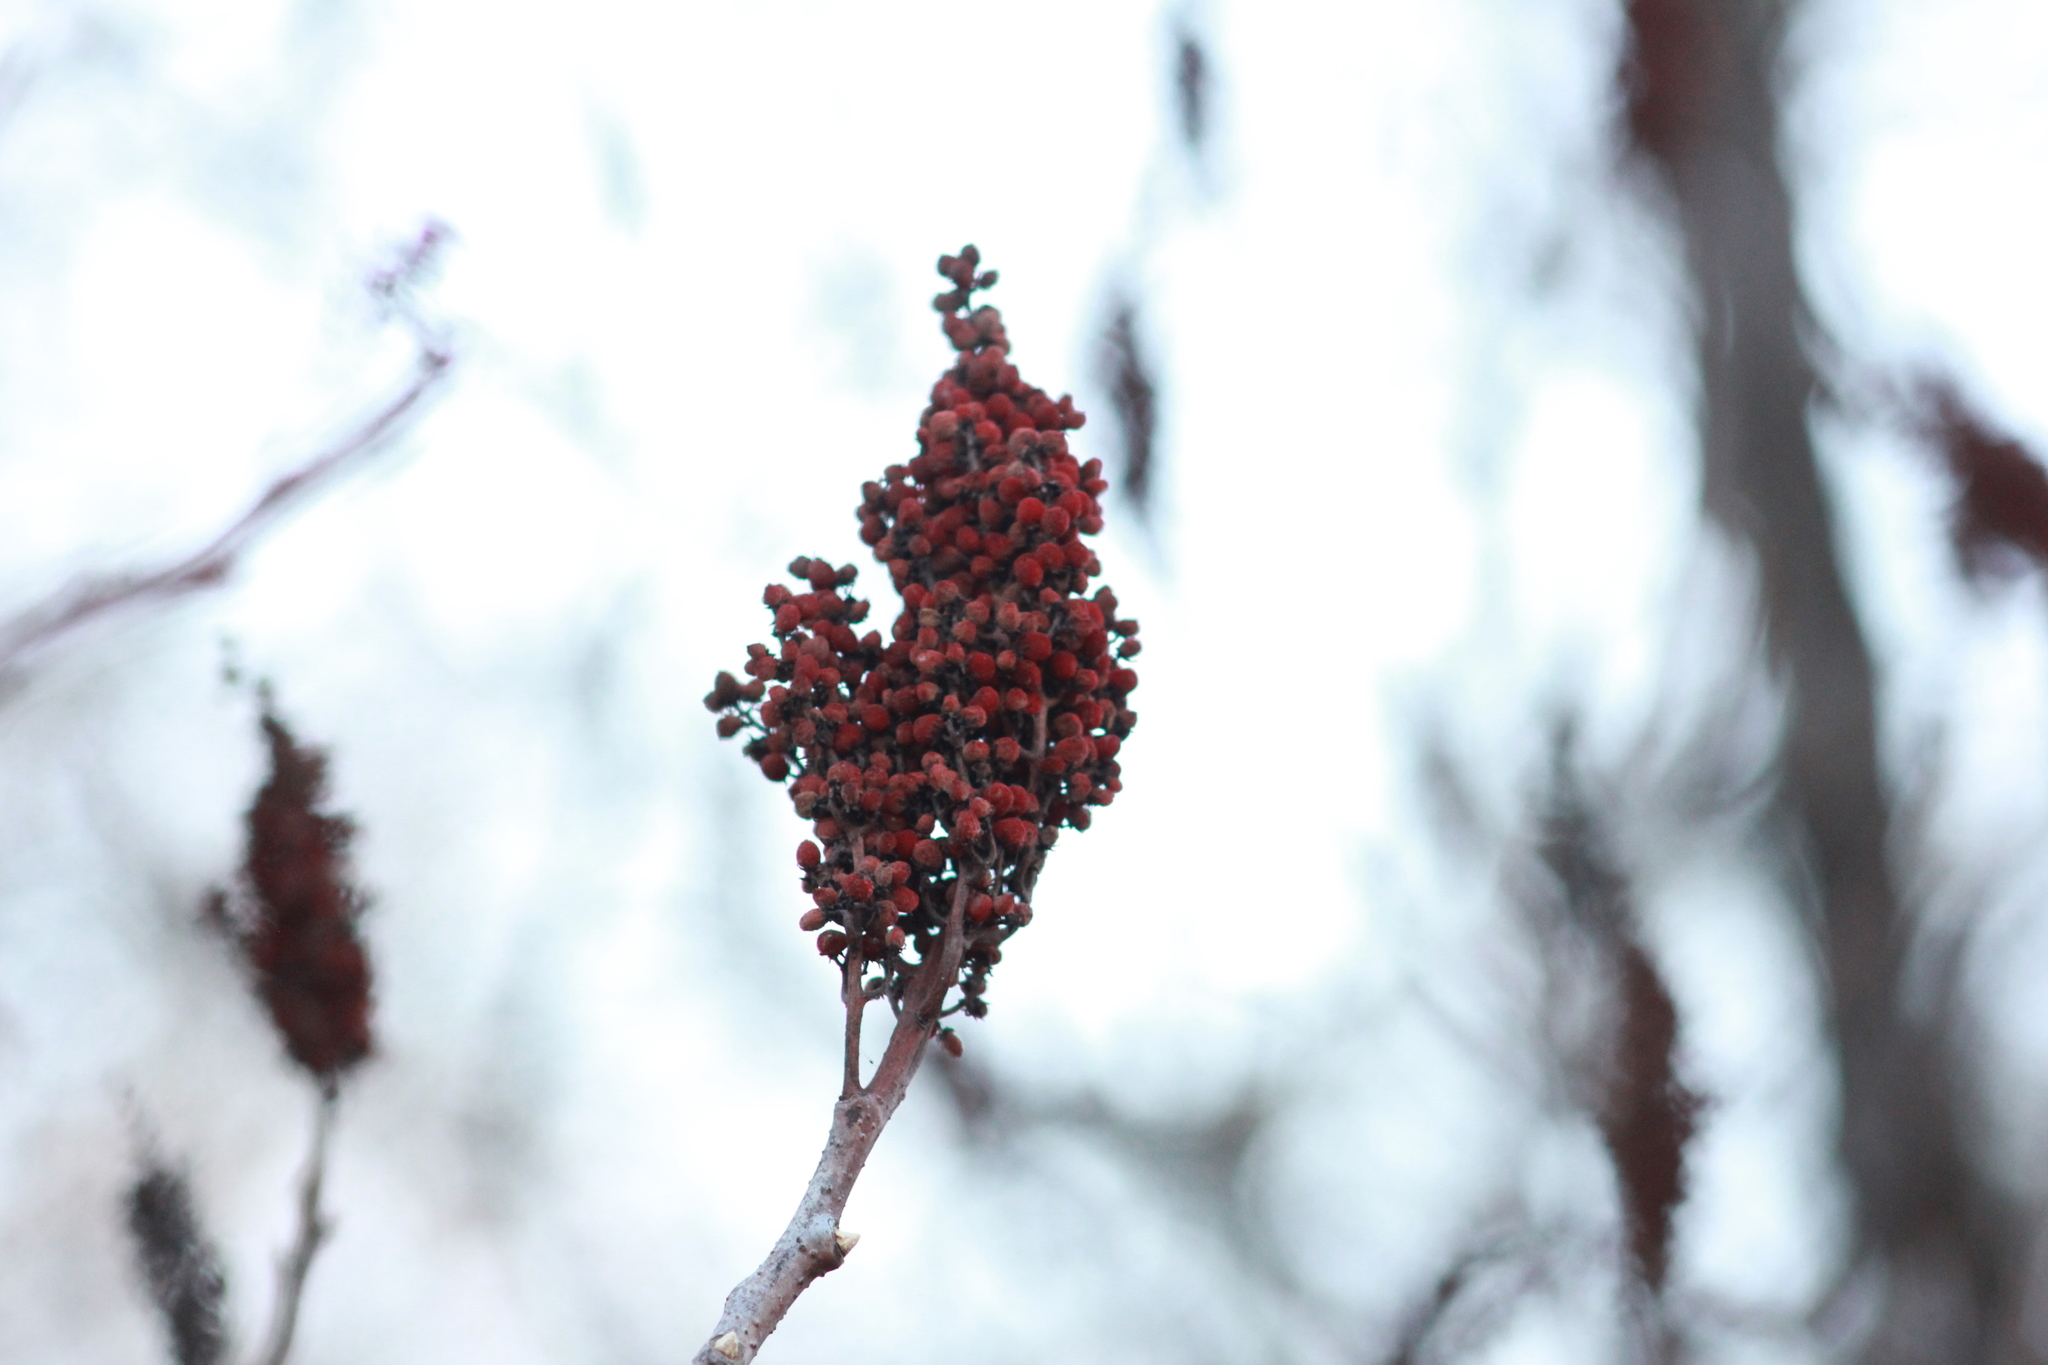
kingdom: Plantae
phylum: Tracheophyta
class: Magnoliopsida
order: Sapindales
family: Anacardiaceae
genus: Rhus
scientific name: Rhus glabra
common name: Scarlet sumac
